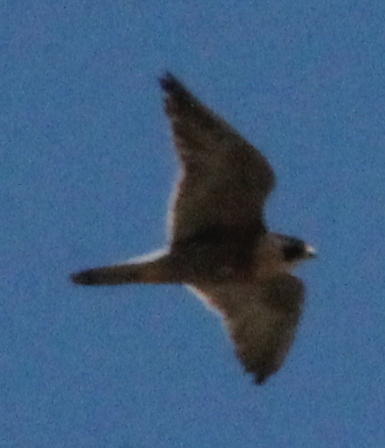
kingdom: Animalia
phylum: Chordata
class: Aves
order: Falconiformes
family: Falconidae
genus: Falco
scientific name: Falco peregrinus
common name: Peregrine falcon
